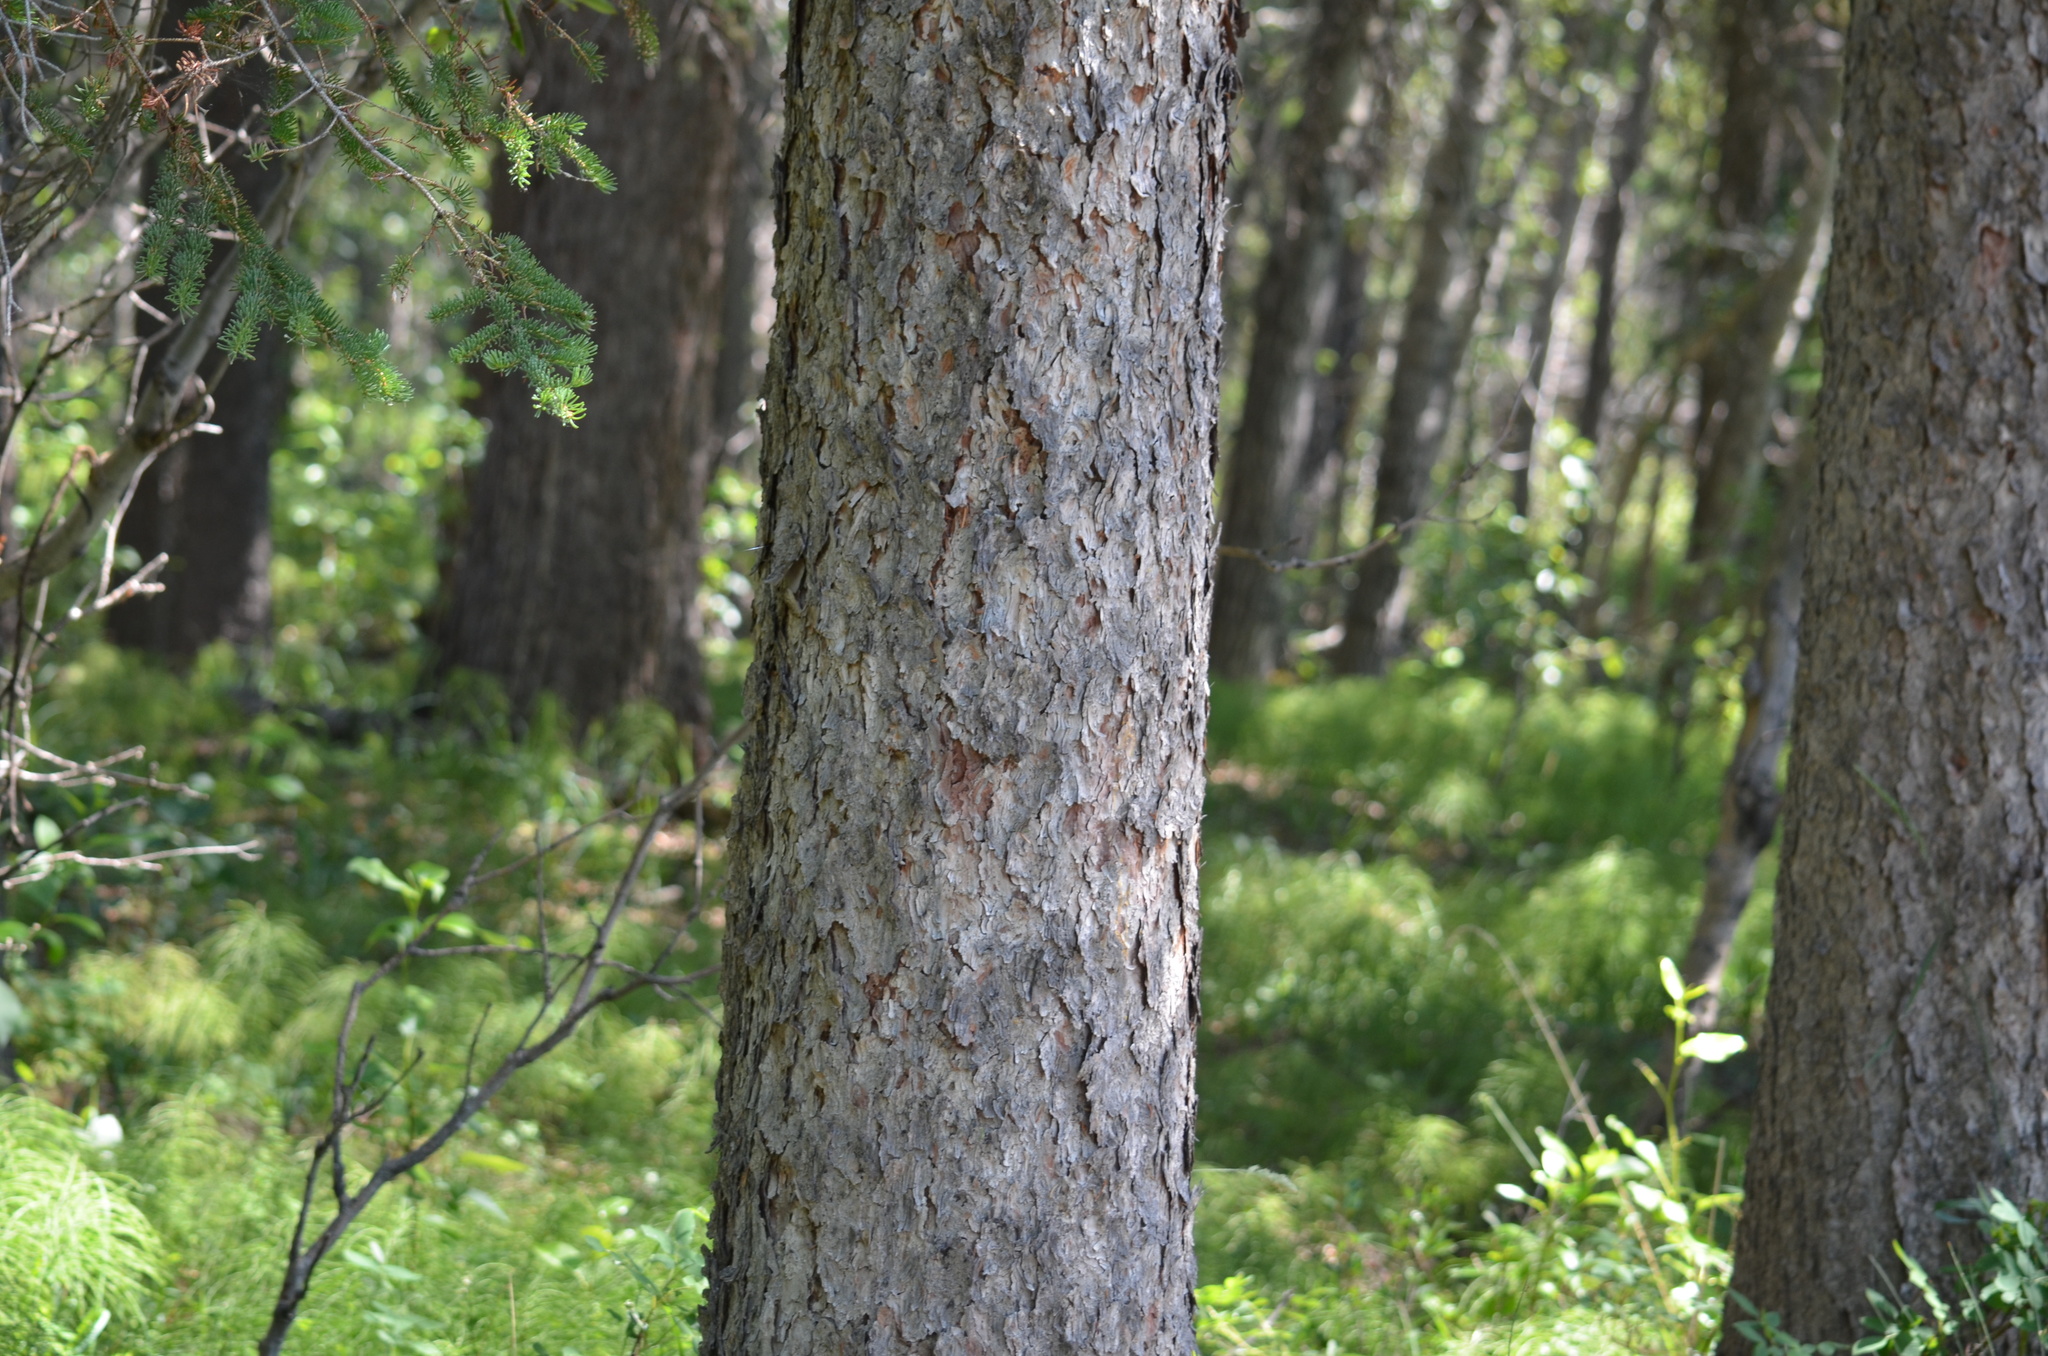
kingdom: Plantae
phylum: Tracheophyta
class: Pinopsida
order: Pinales
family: Pinaceae
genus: Picea
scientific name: Picea glauca
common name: White spruce
